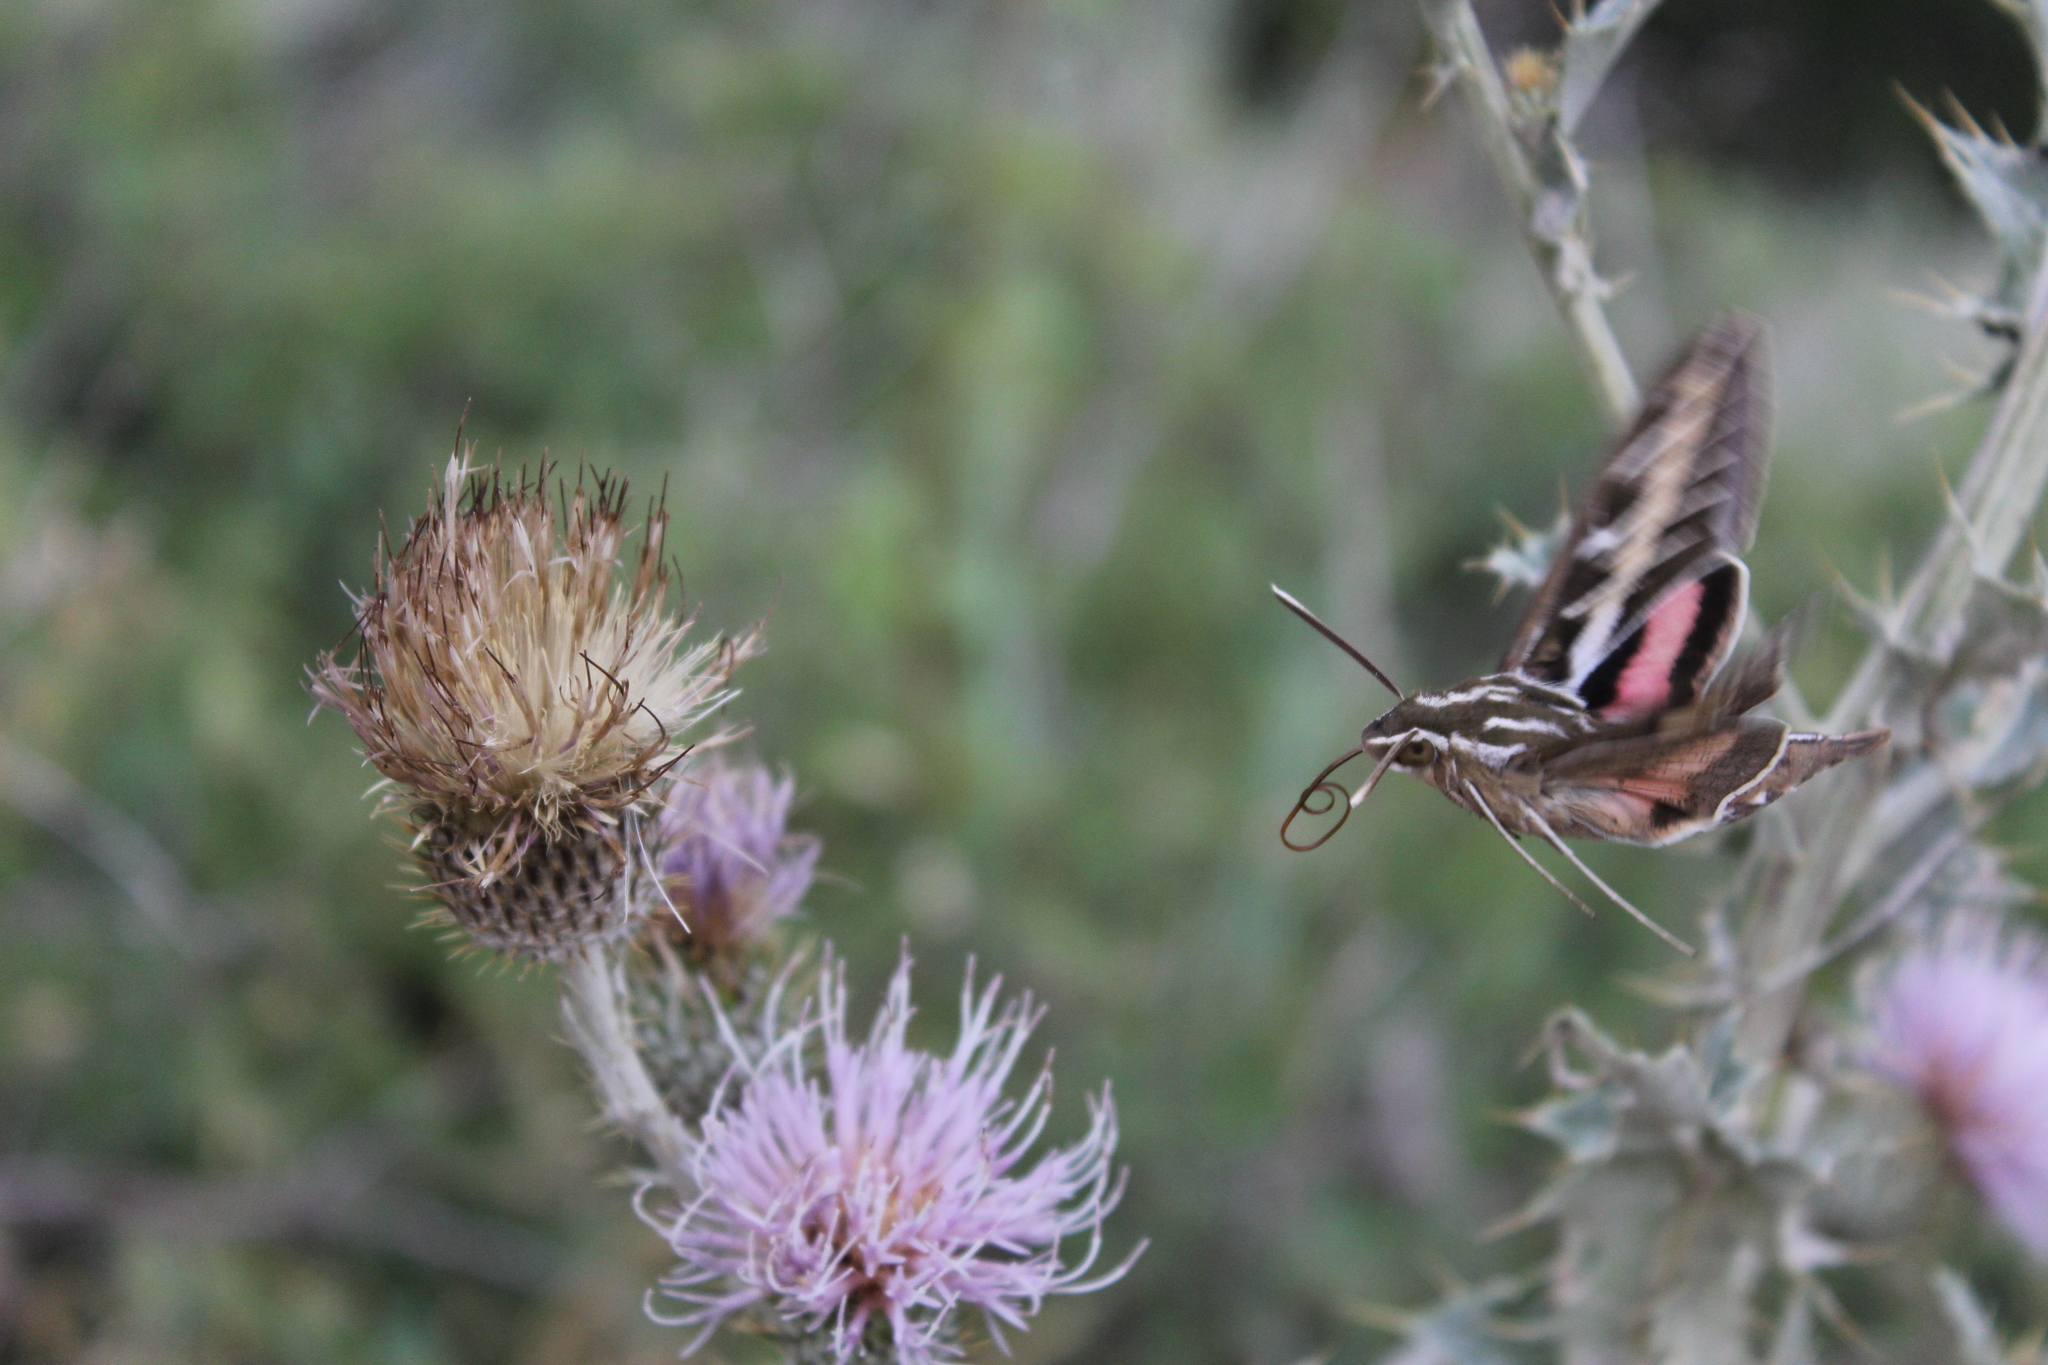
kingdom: Animalia
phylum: Arthropoda
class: Insecta
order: Lepidoptera
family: Sphingidae
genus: Hyles
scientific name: Hyles lineata
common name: White-lined sphinx
